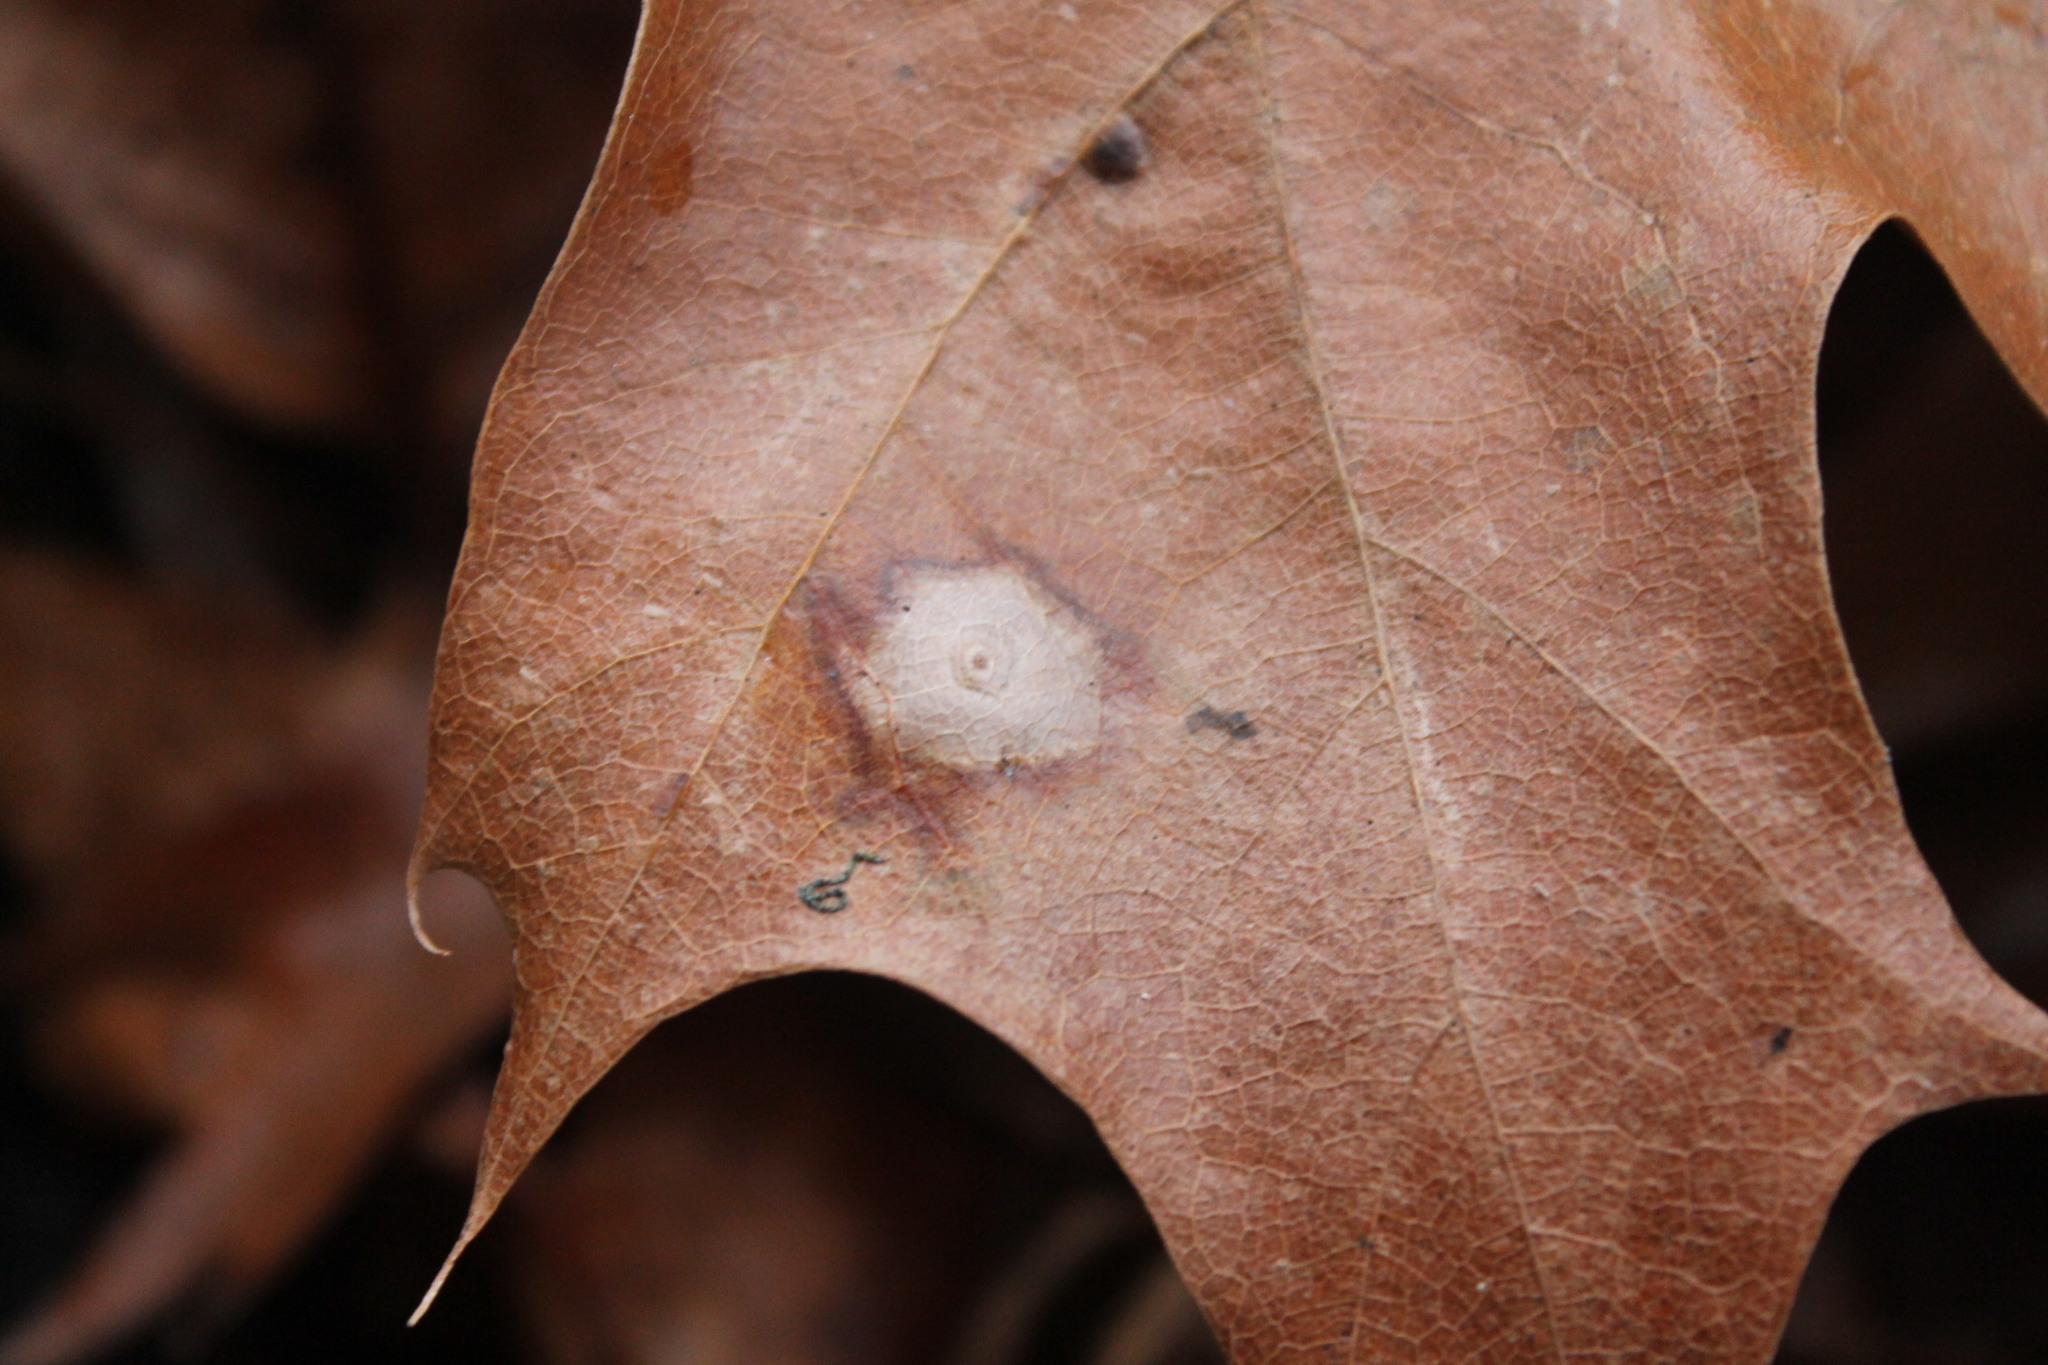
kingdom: Fungi
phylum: Ascomycota
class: Sordariomycetes
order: Diaporthales
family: Melanconidaceae
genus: Dicarpella
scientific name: Dicarpella dryina
